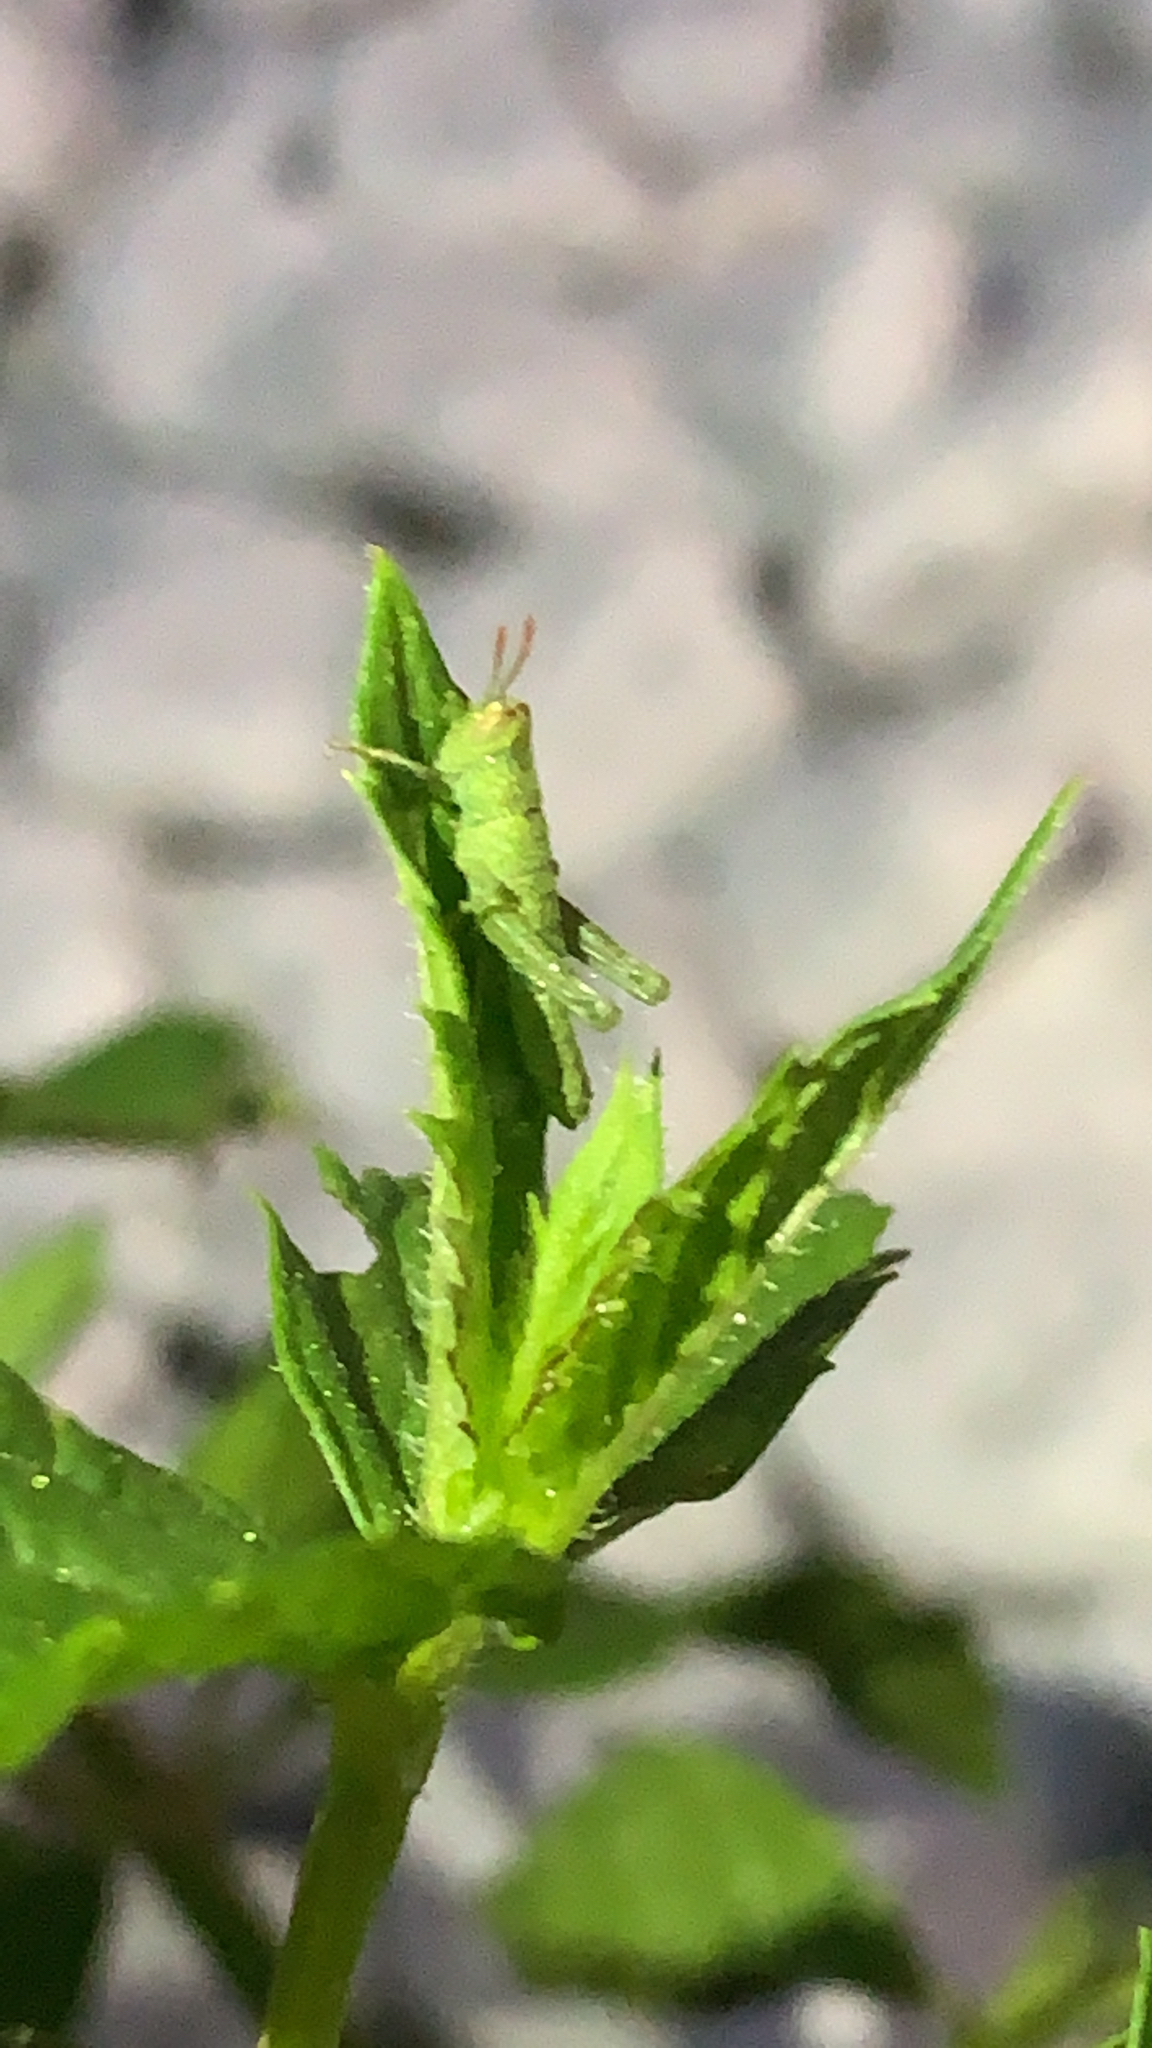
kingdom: Animalia
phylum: Arthropoda
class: Insecta
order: Orthoptera
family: Acrididae
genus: Anacridium
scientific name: Anacridium aegyptium
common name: Egyptian grasshopper
